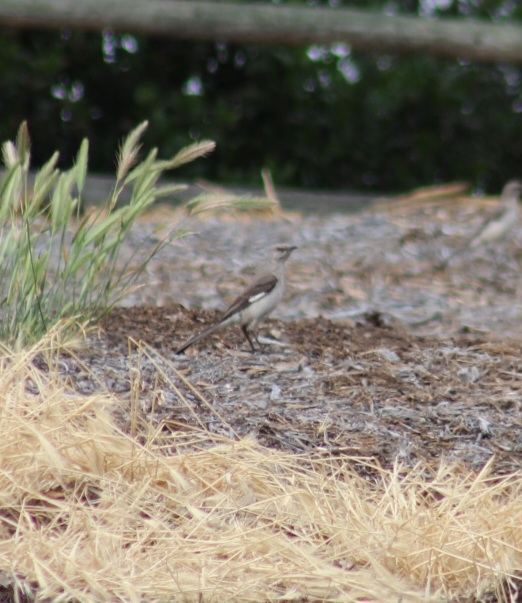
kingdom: Animalia
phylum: Chordata
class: Aves
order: Passeriformes
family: Mimidae
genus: Mimus
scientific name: Mimus polyglottos
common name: Northern mockingbird
